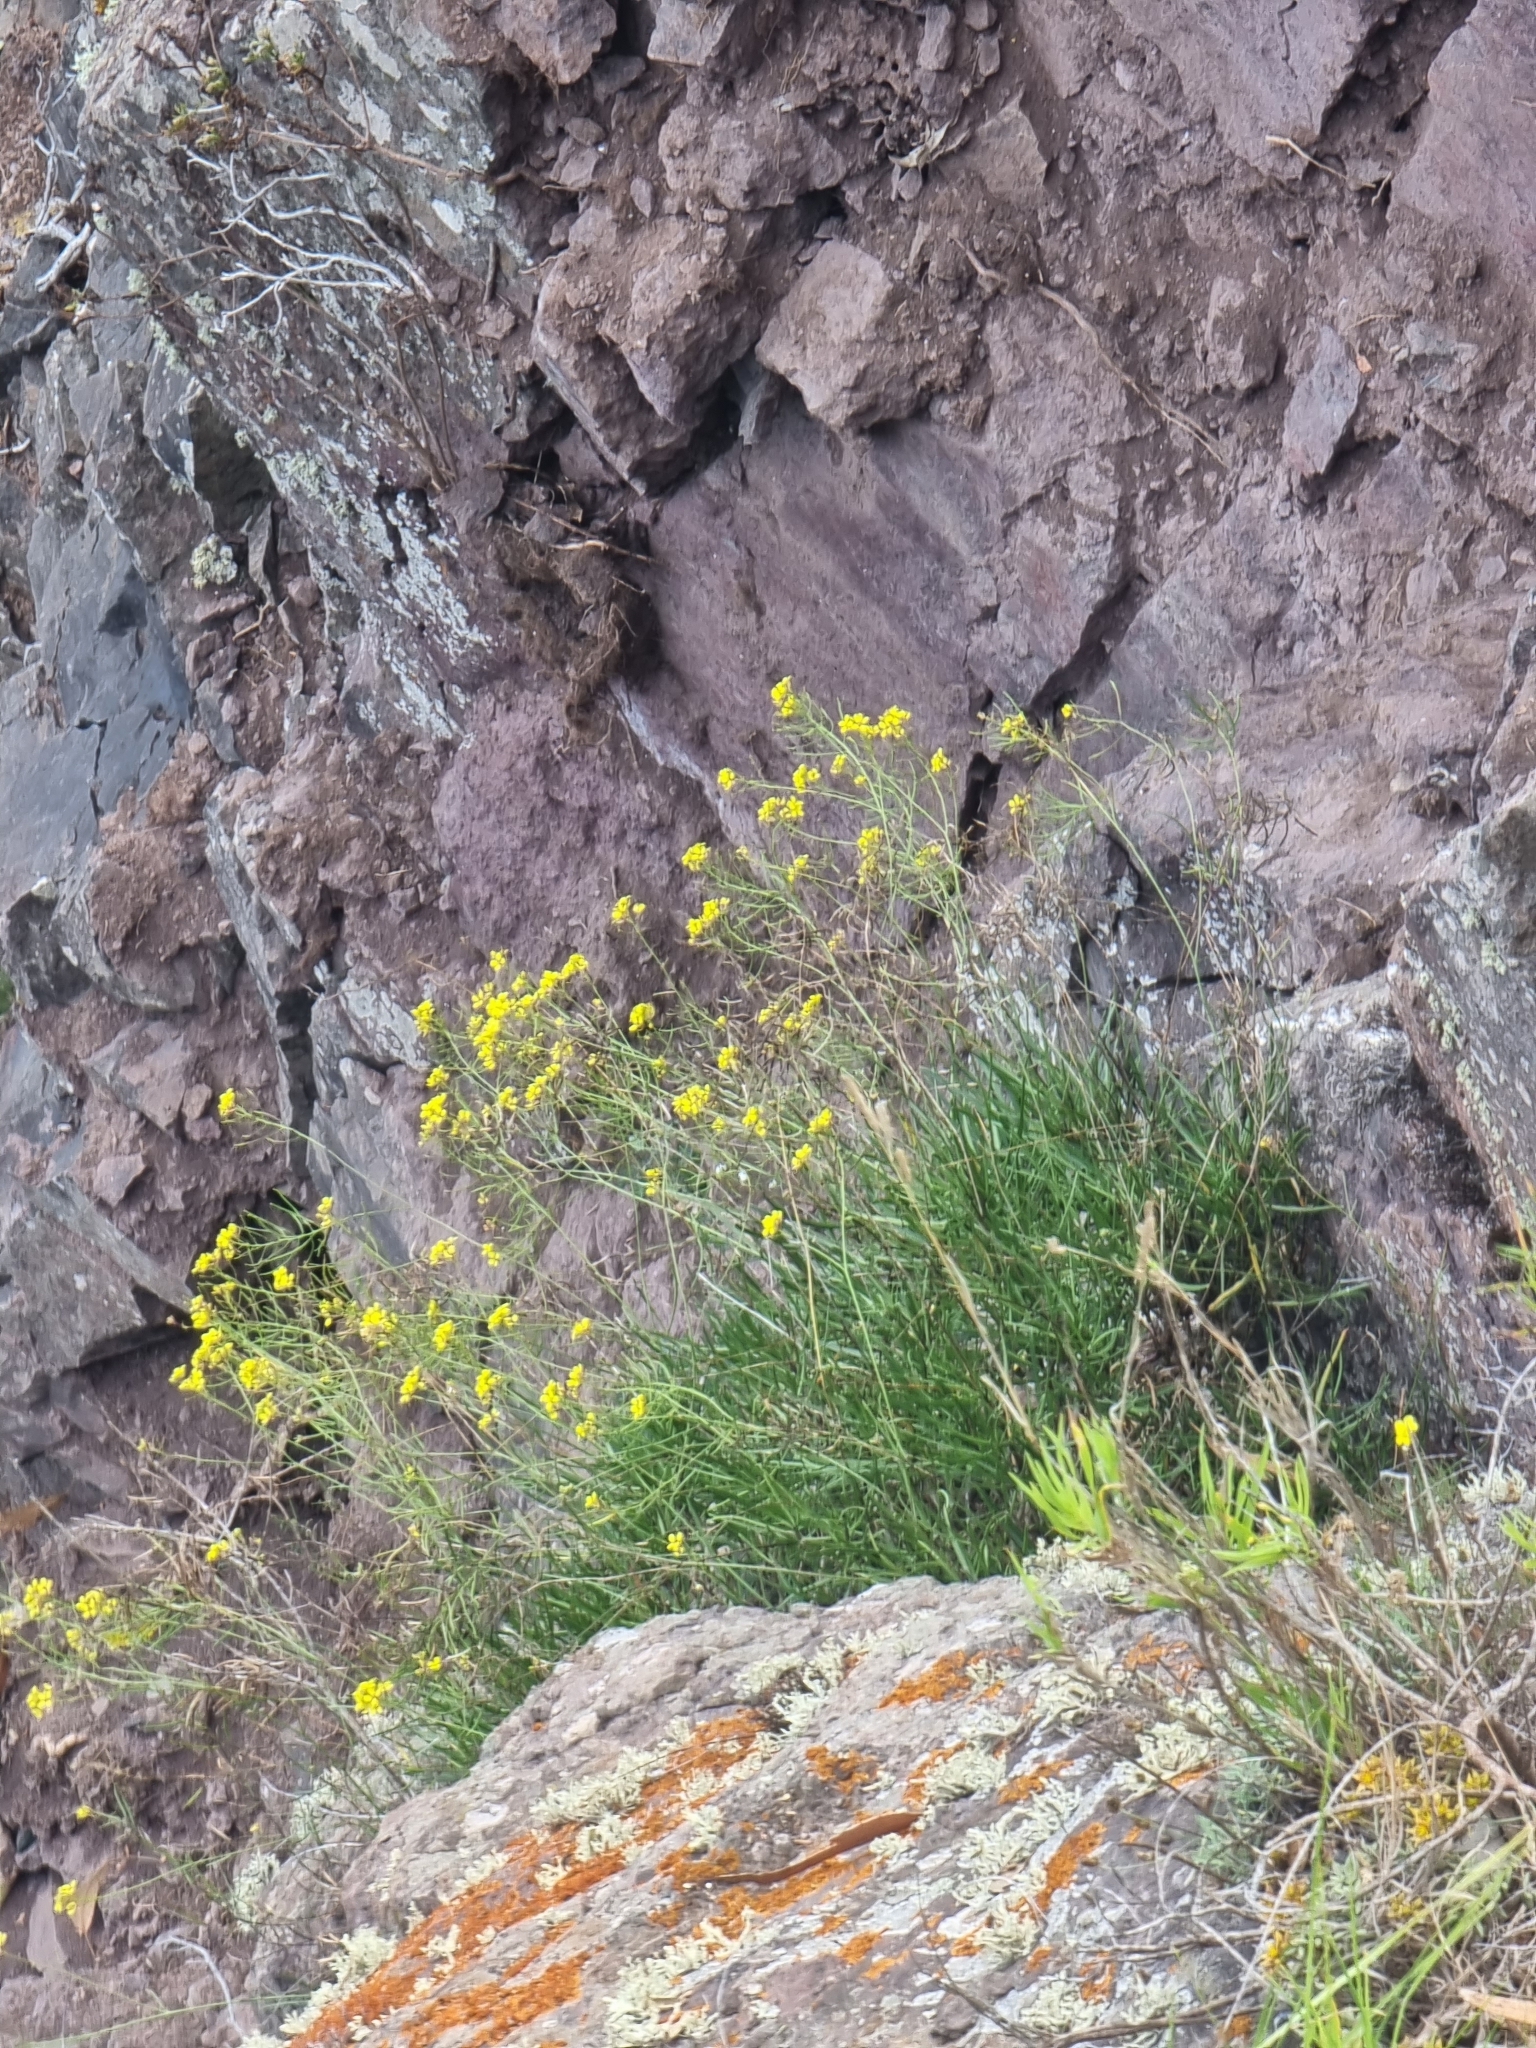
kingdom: Plantae
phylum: Tracheophyta
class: Magnoliopsida
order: Brassicales
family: Brassicaceae
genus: Sinapidendron
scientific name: Sinapidendron angustifolium
